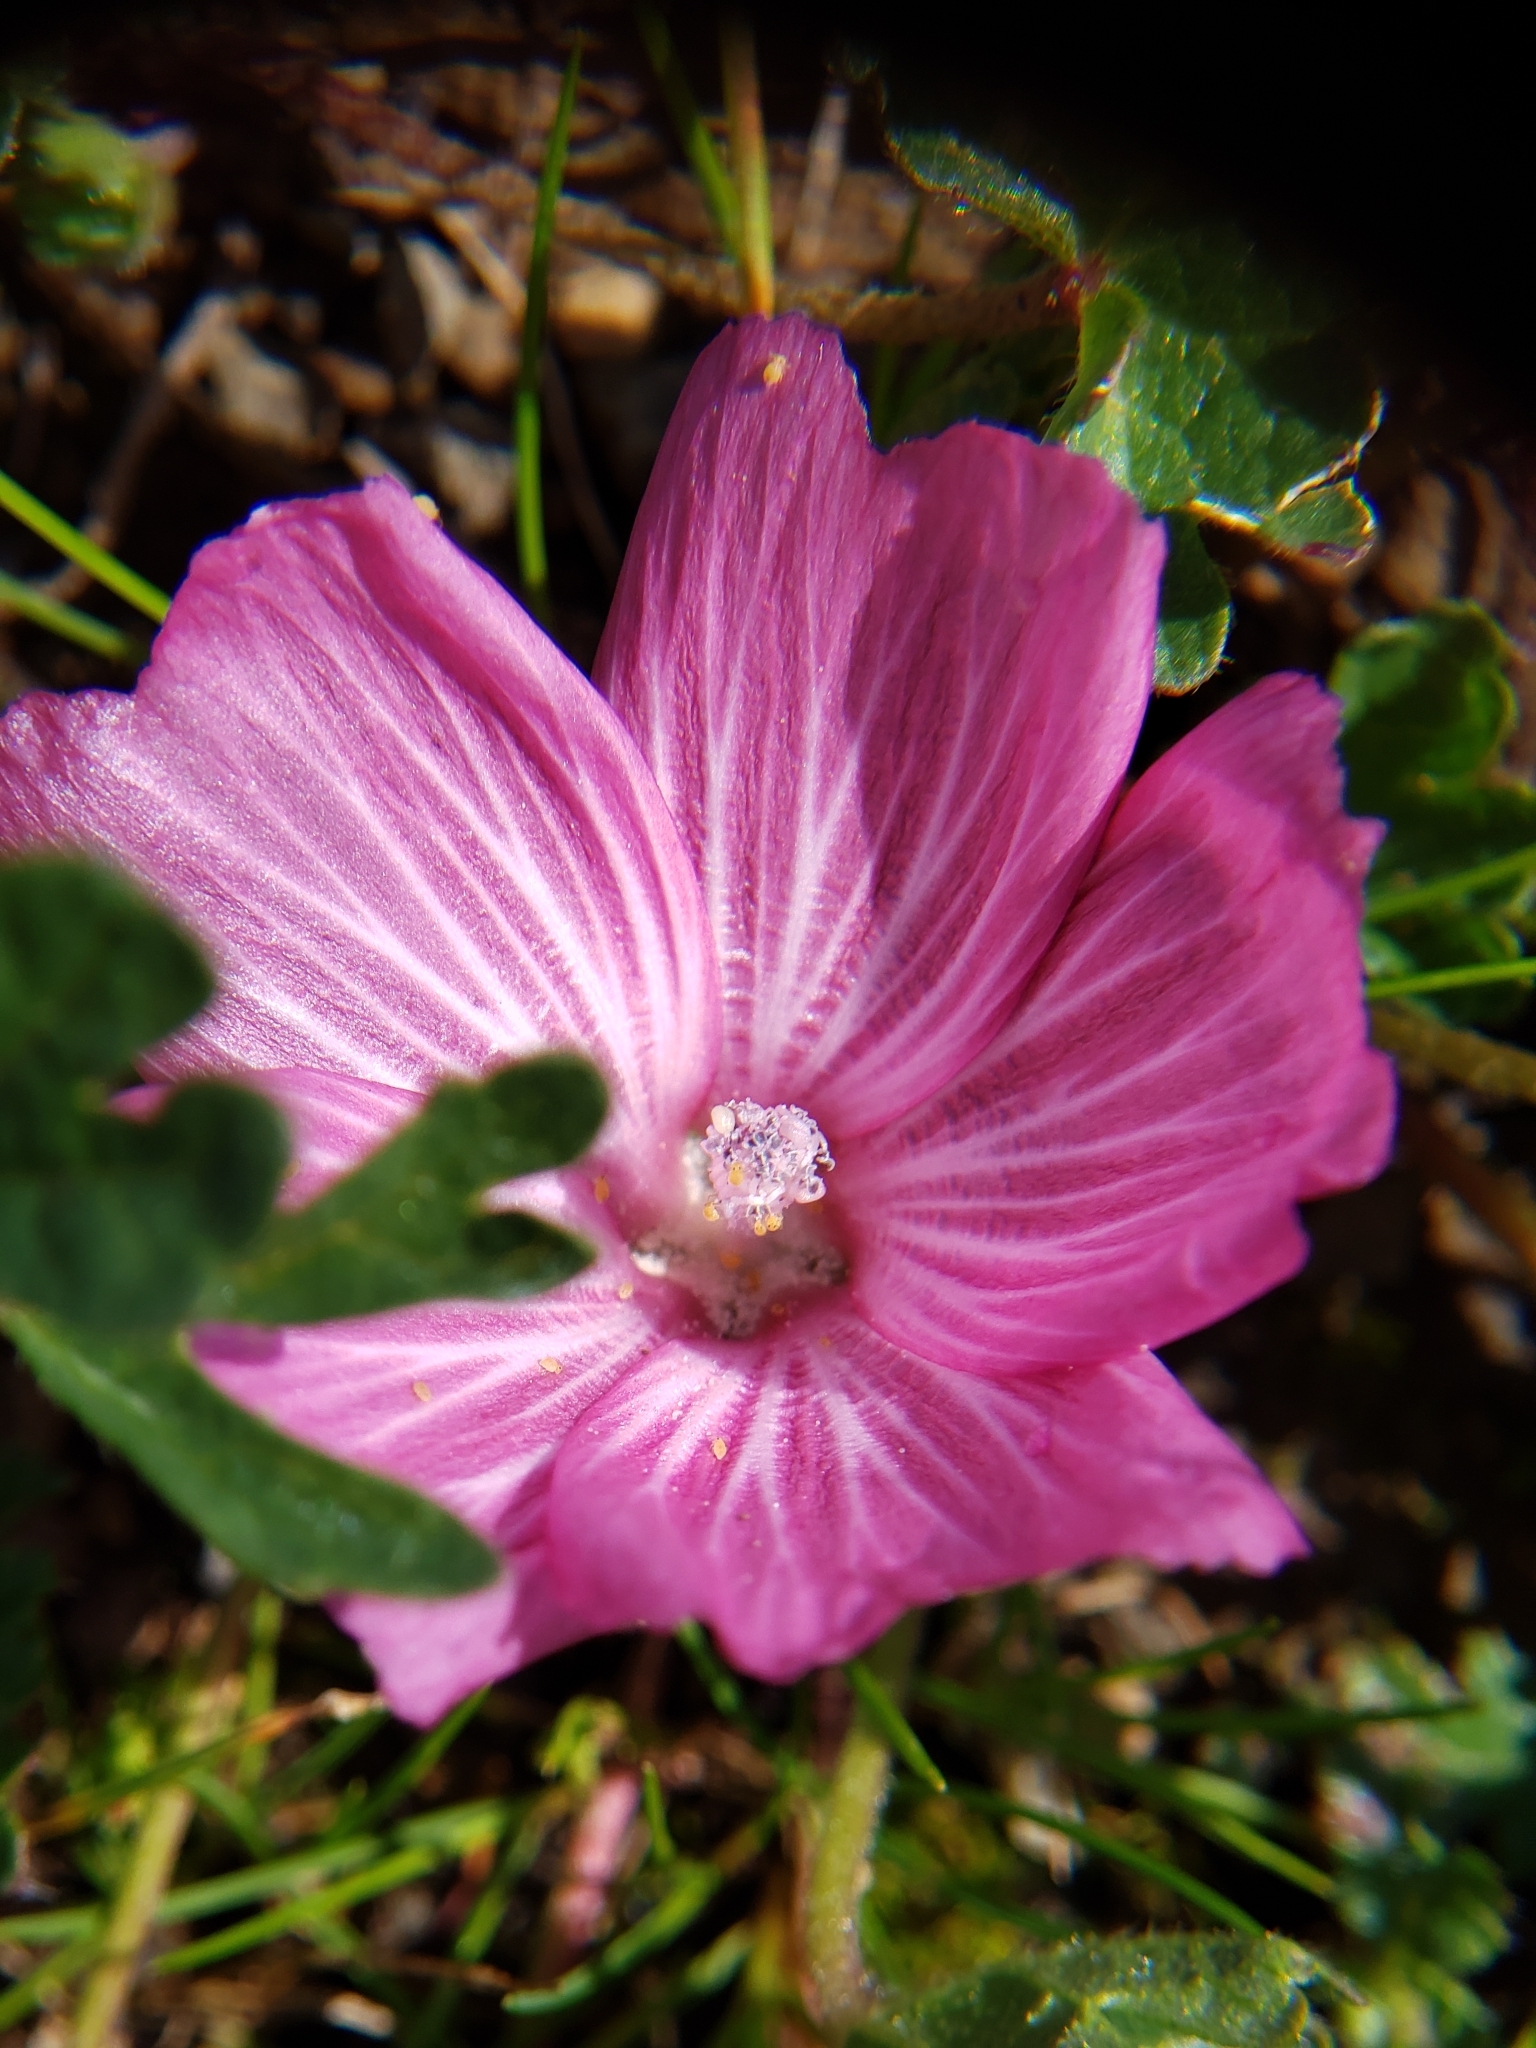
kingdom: Plantae
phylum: Tracheophyta
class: Magnoliopsida
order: Malvales
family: Malvaceae
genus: Sidalcea
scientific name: Sidalcea malviflora
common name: Greek mallow
